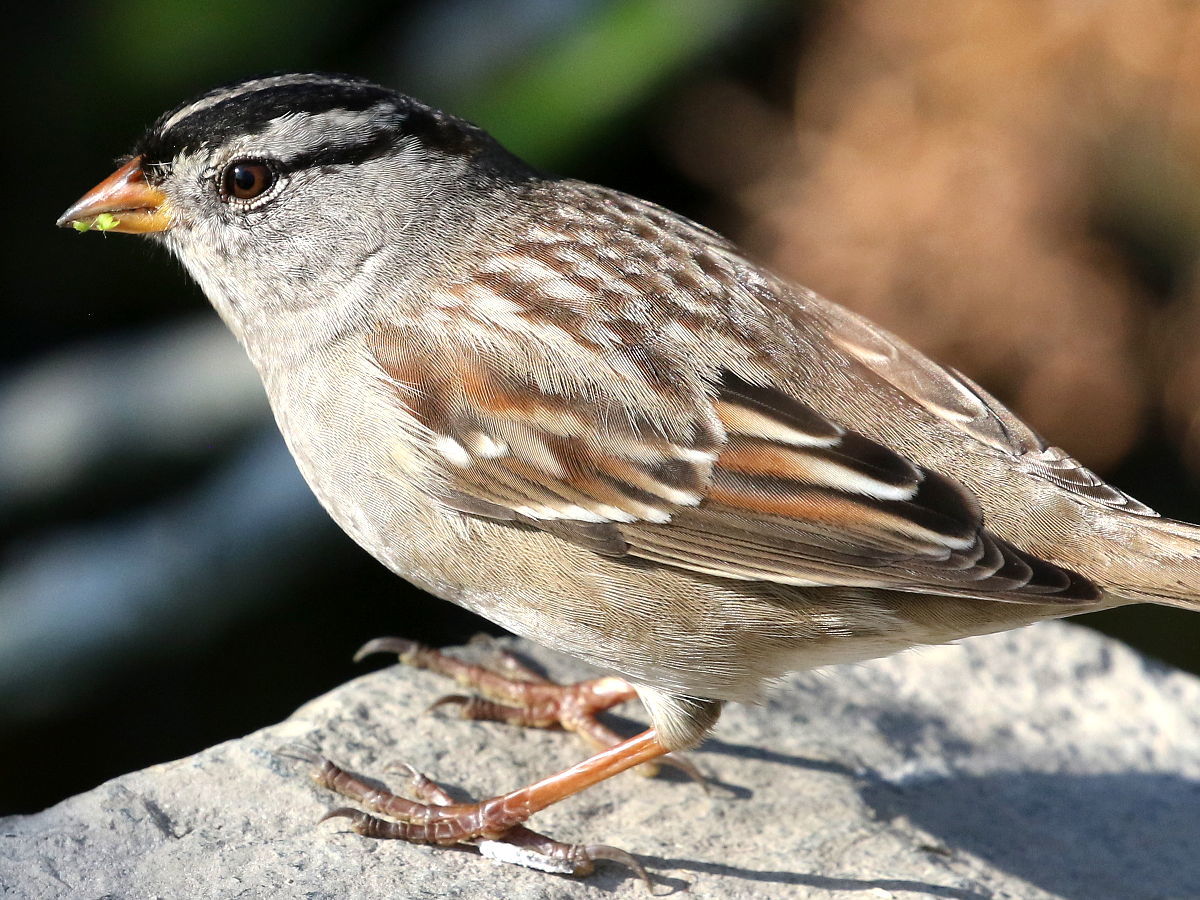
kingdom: Animalia
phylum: Chordata
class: Aves
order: Passeriformes
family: Passerellidae
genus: Zonotrichia
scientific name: Zonotrichia leucophrys
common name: White-crowned sparrow
